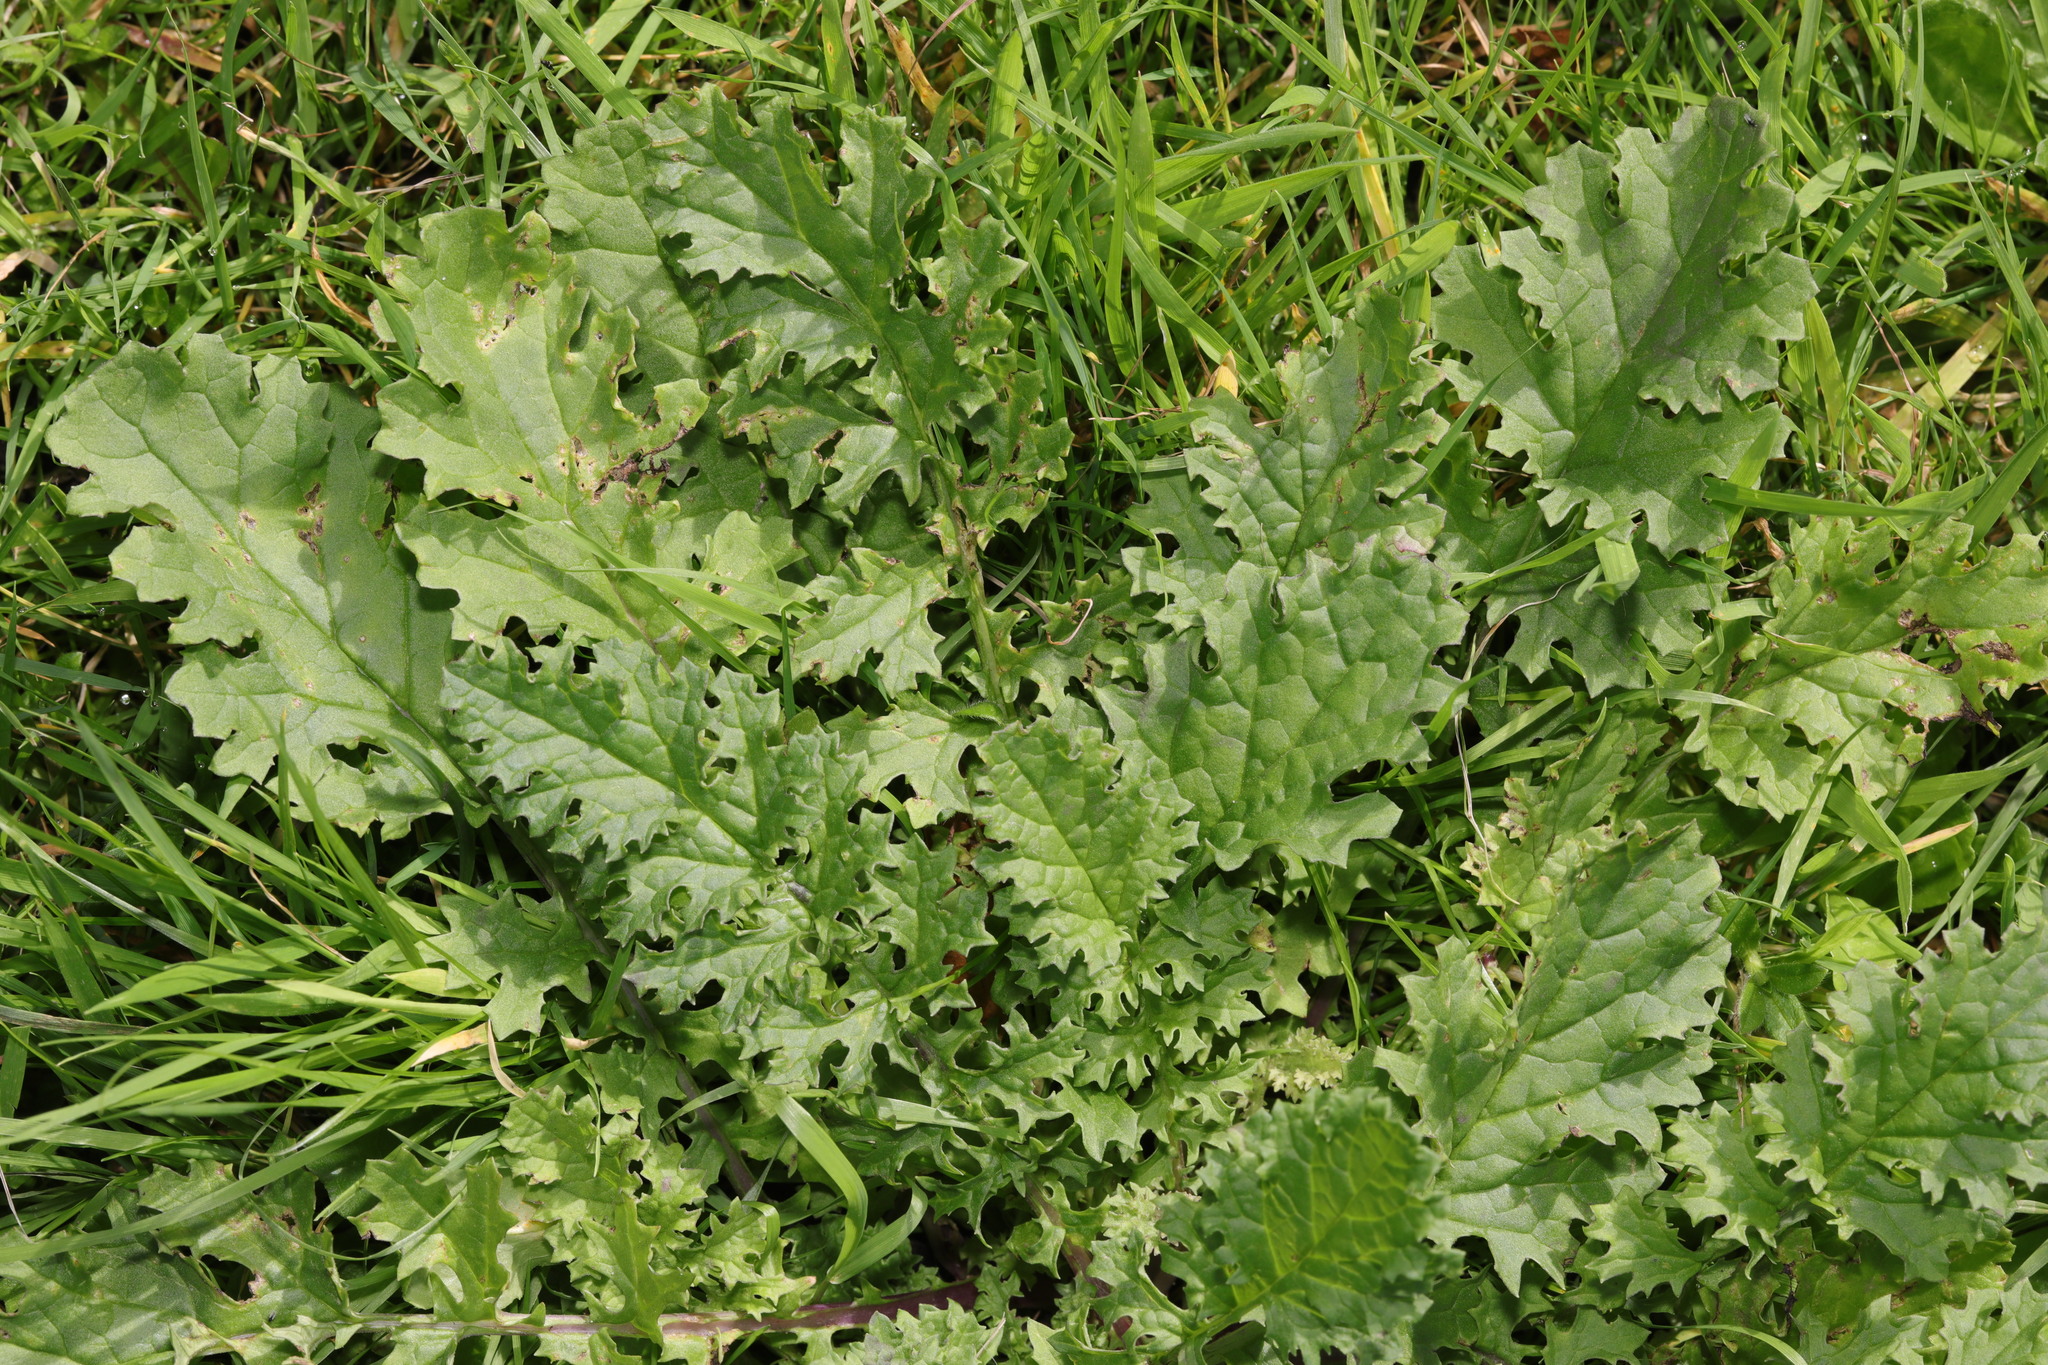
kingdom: Plantae
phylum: Tracheophyta
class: Magnoliopsida
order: Asterales
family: Asteraceae
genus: Jacobaea
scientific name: Jacobaea vulgaris
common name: Stinking willie
